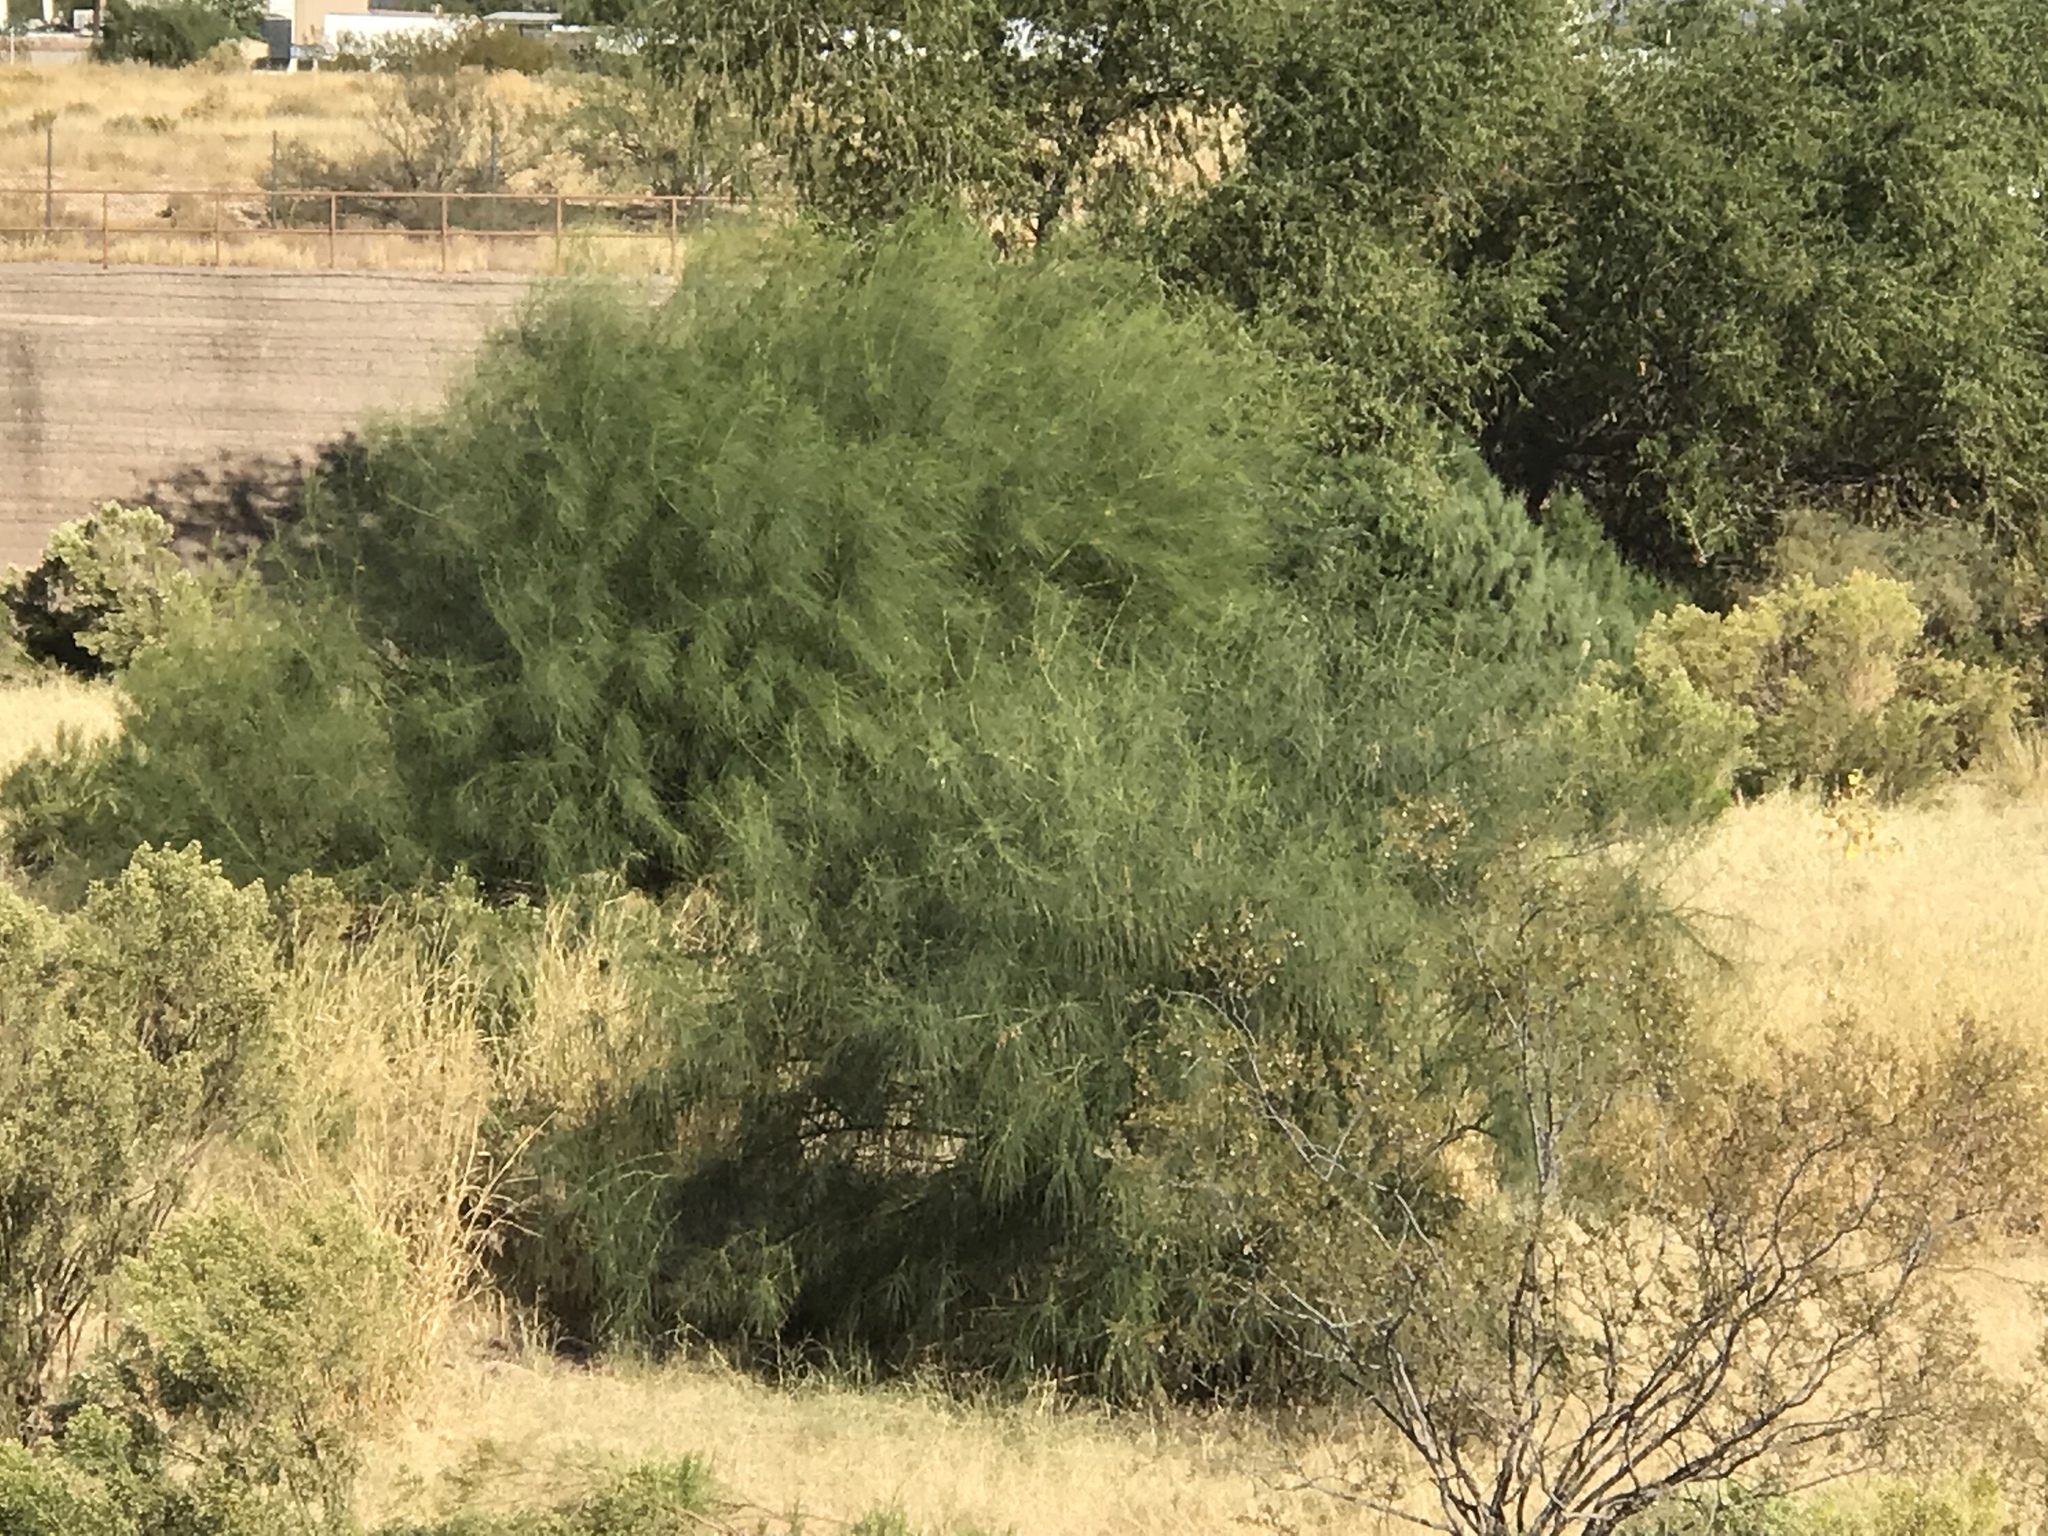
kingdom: Plantae
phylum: Tracheophyta
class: Magnoliopsida
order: Fabales
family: Fabaceae
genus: Parkinsonia
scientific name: Parkinsonia aculeata
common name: Jerusalem thorn
